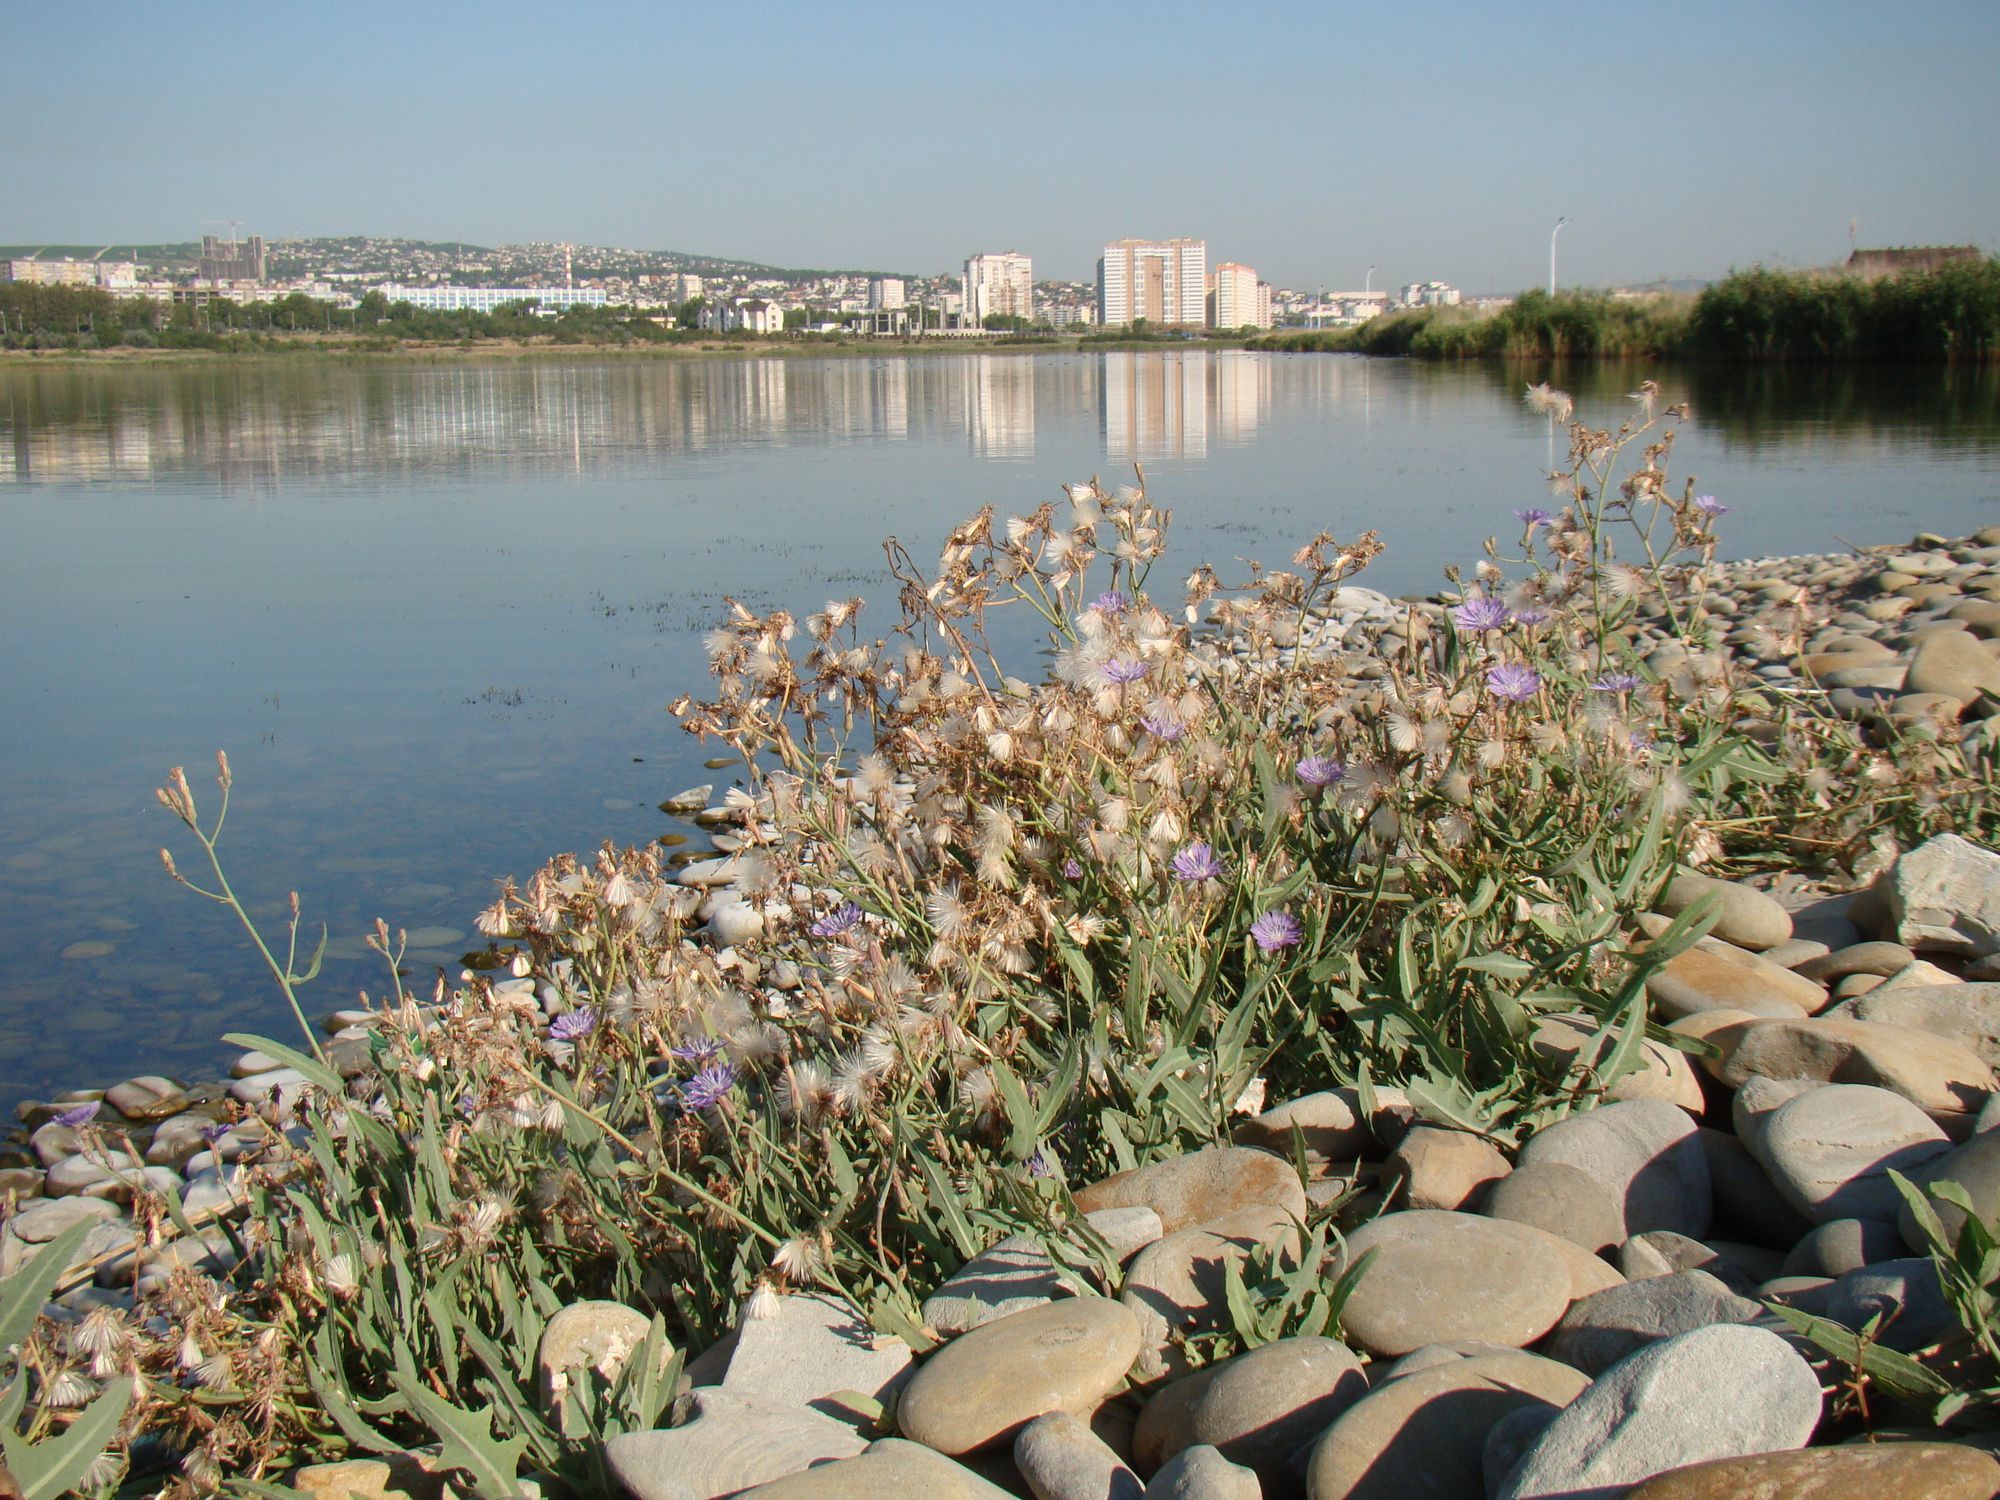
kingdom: Plantae
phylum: Tracheophyta
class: Magnoliopsida
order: Asterales
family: Asteraceae
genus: Lactuca
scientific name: Lactuca tatarica
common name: Blue lettuce
